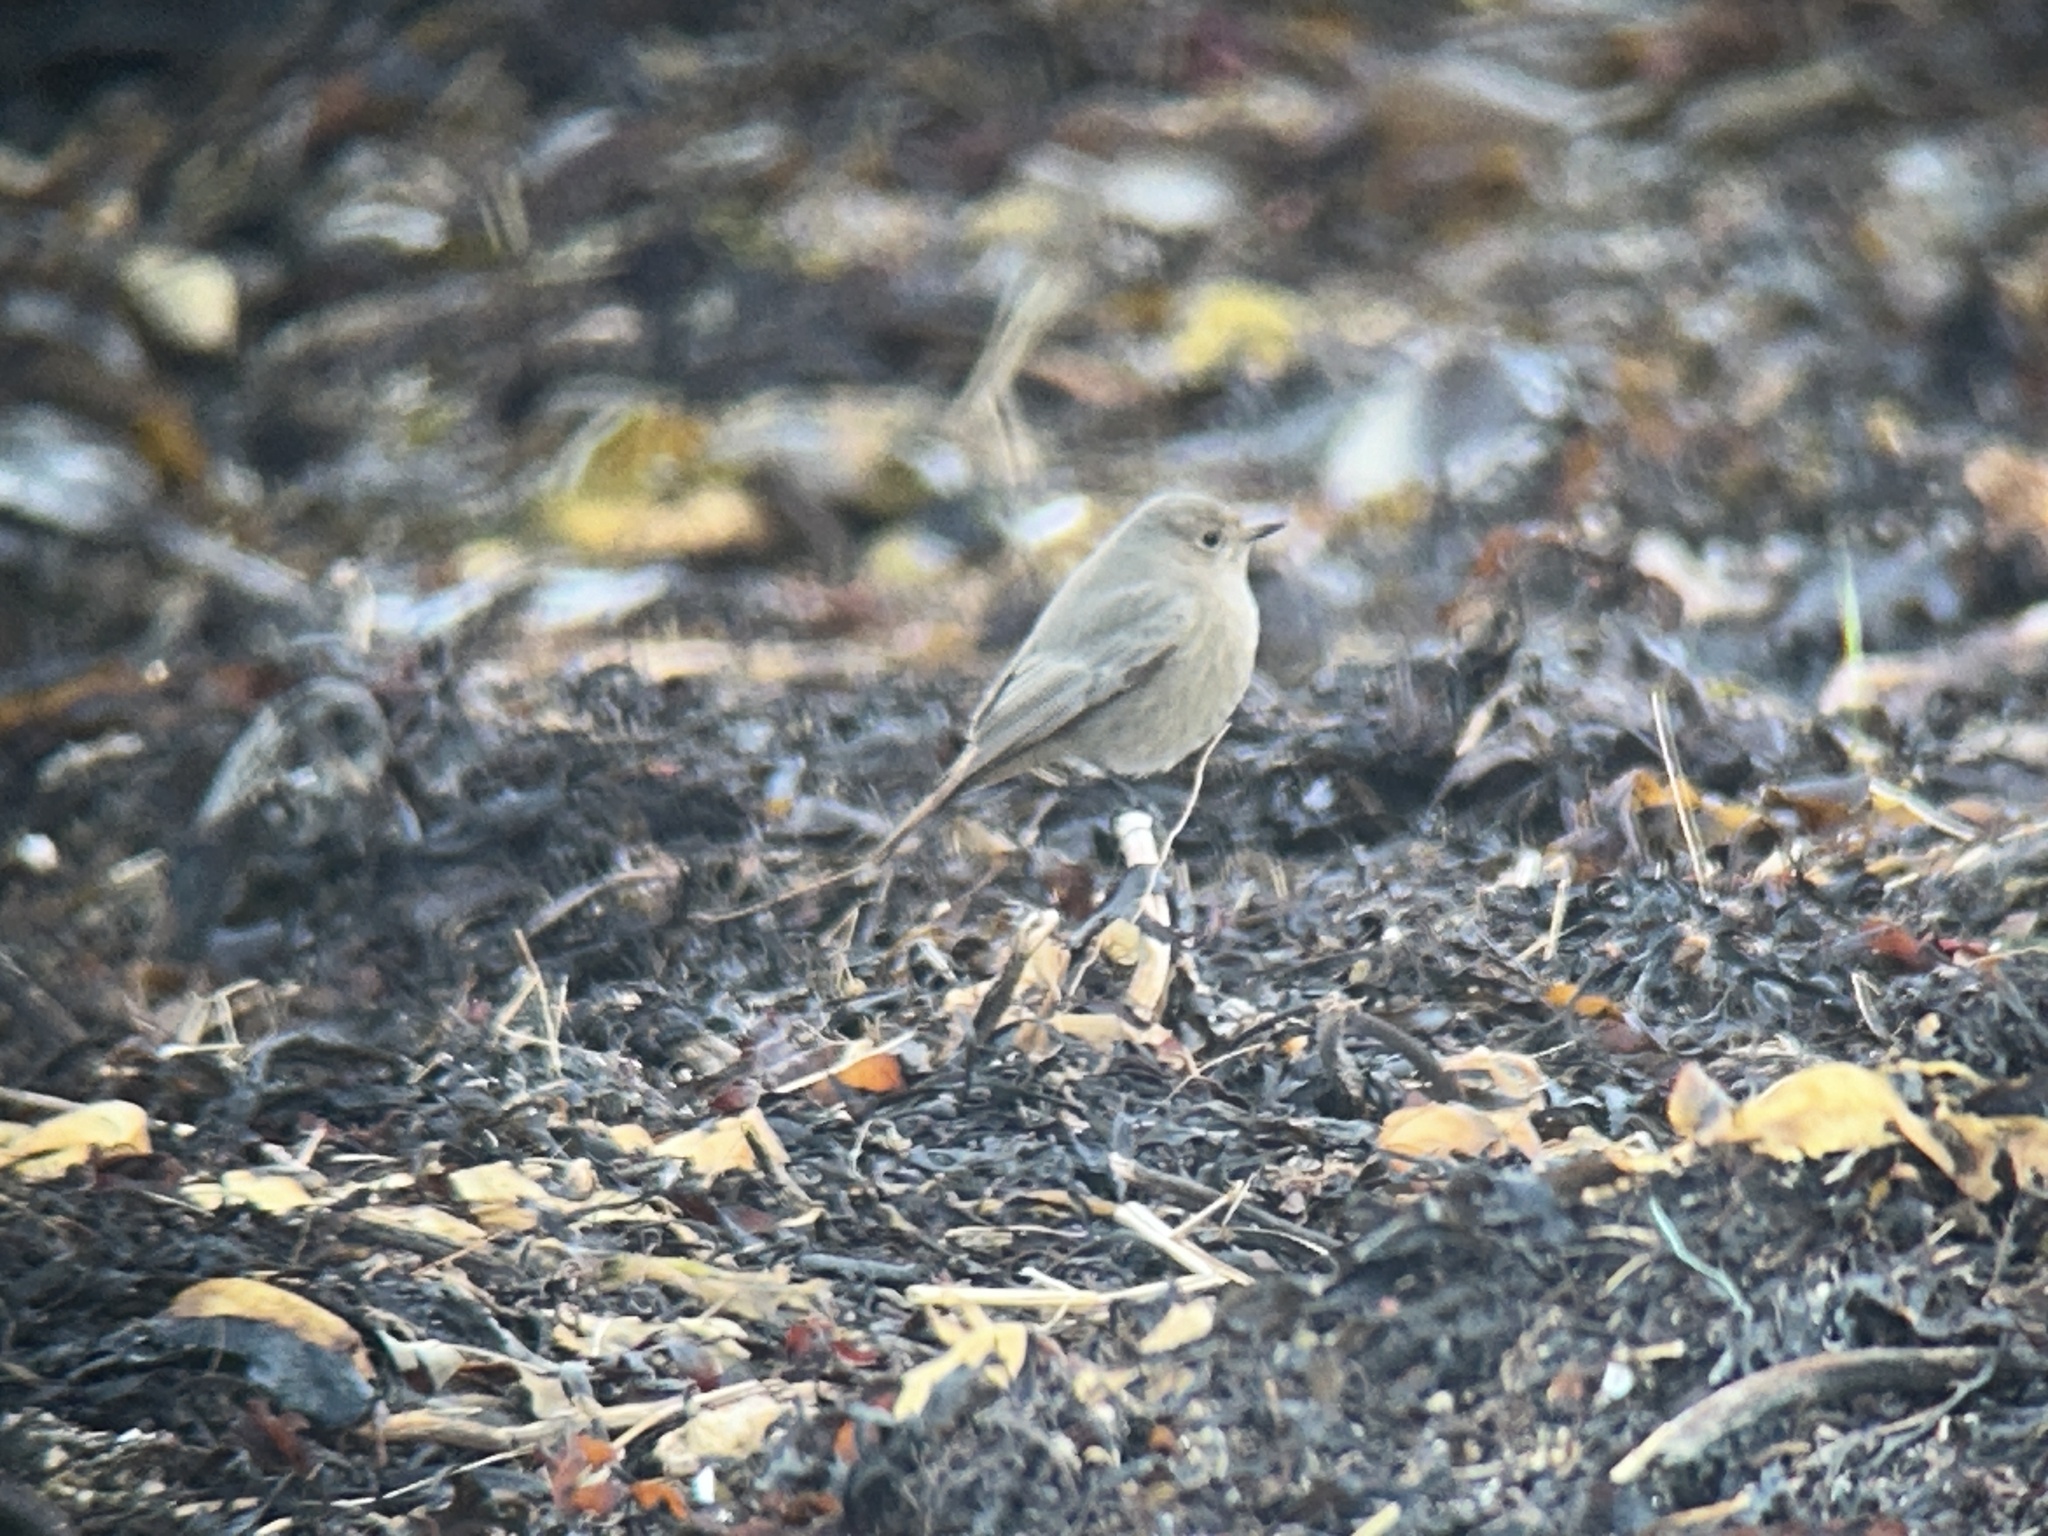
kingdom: Animalia
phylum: Chordata
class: Aves
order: Passeriformes
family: Muscicapidae
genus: Phoenicurus
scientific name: Phoenicurus ochruros
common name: Black redstart
